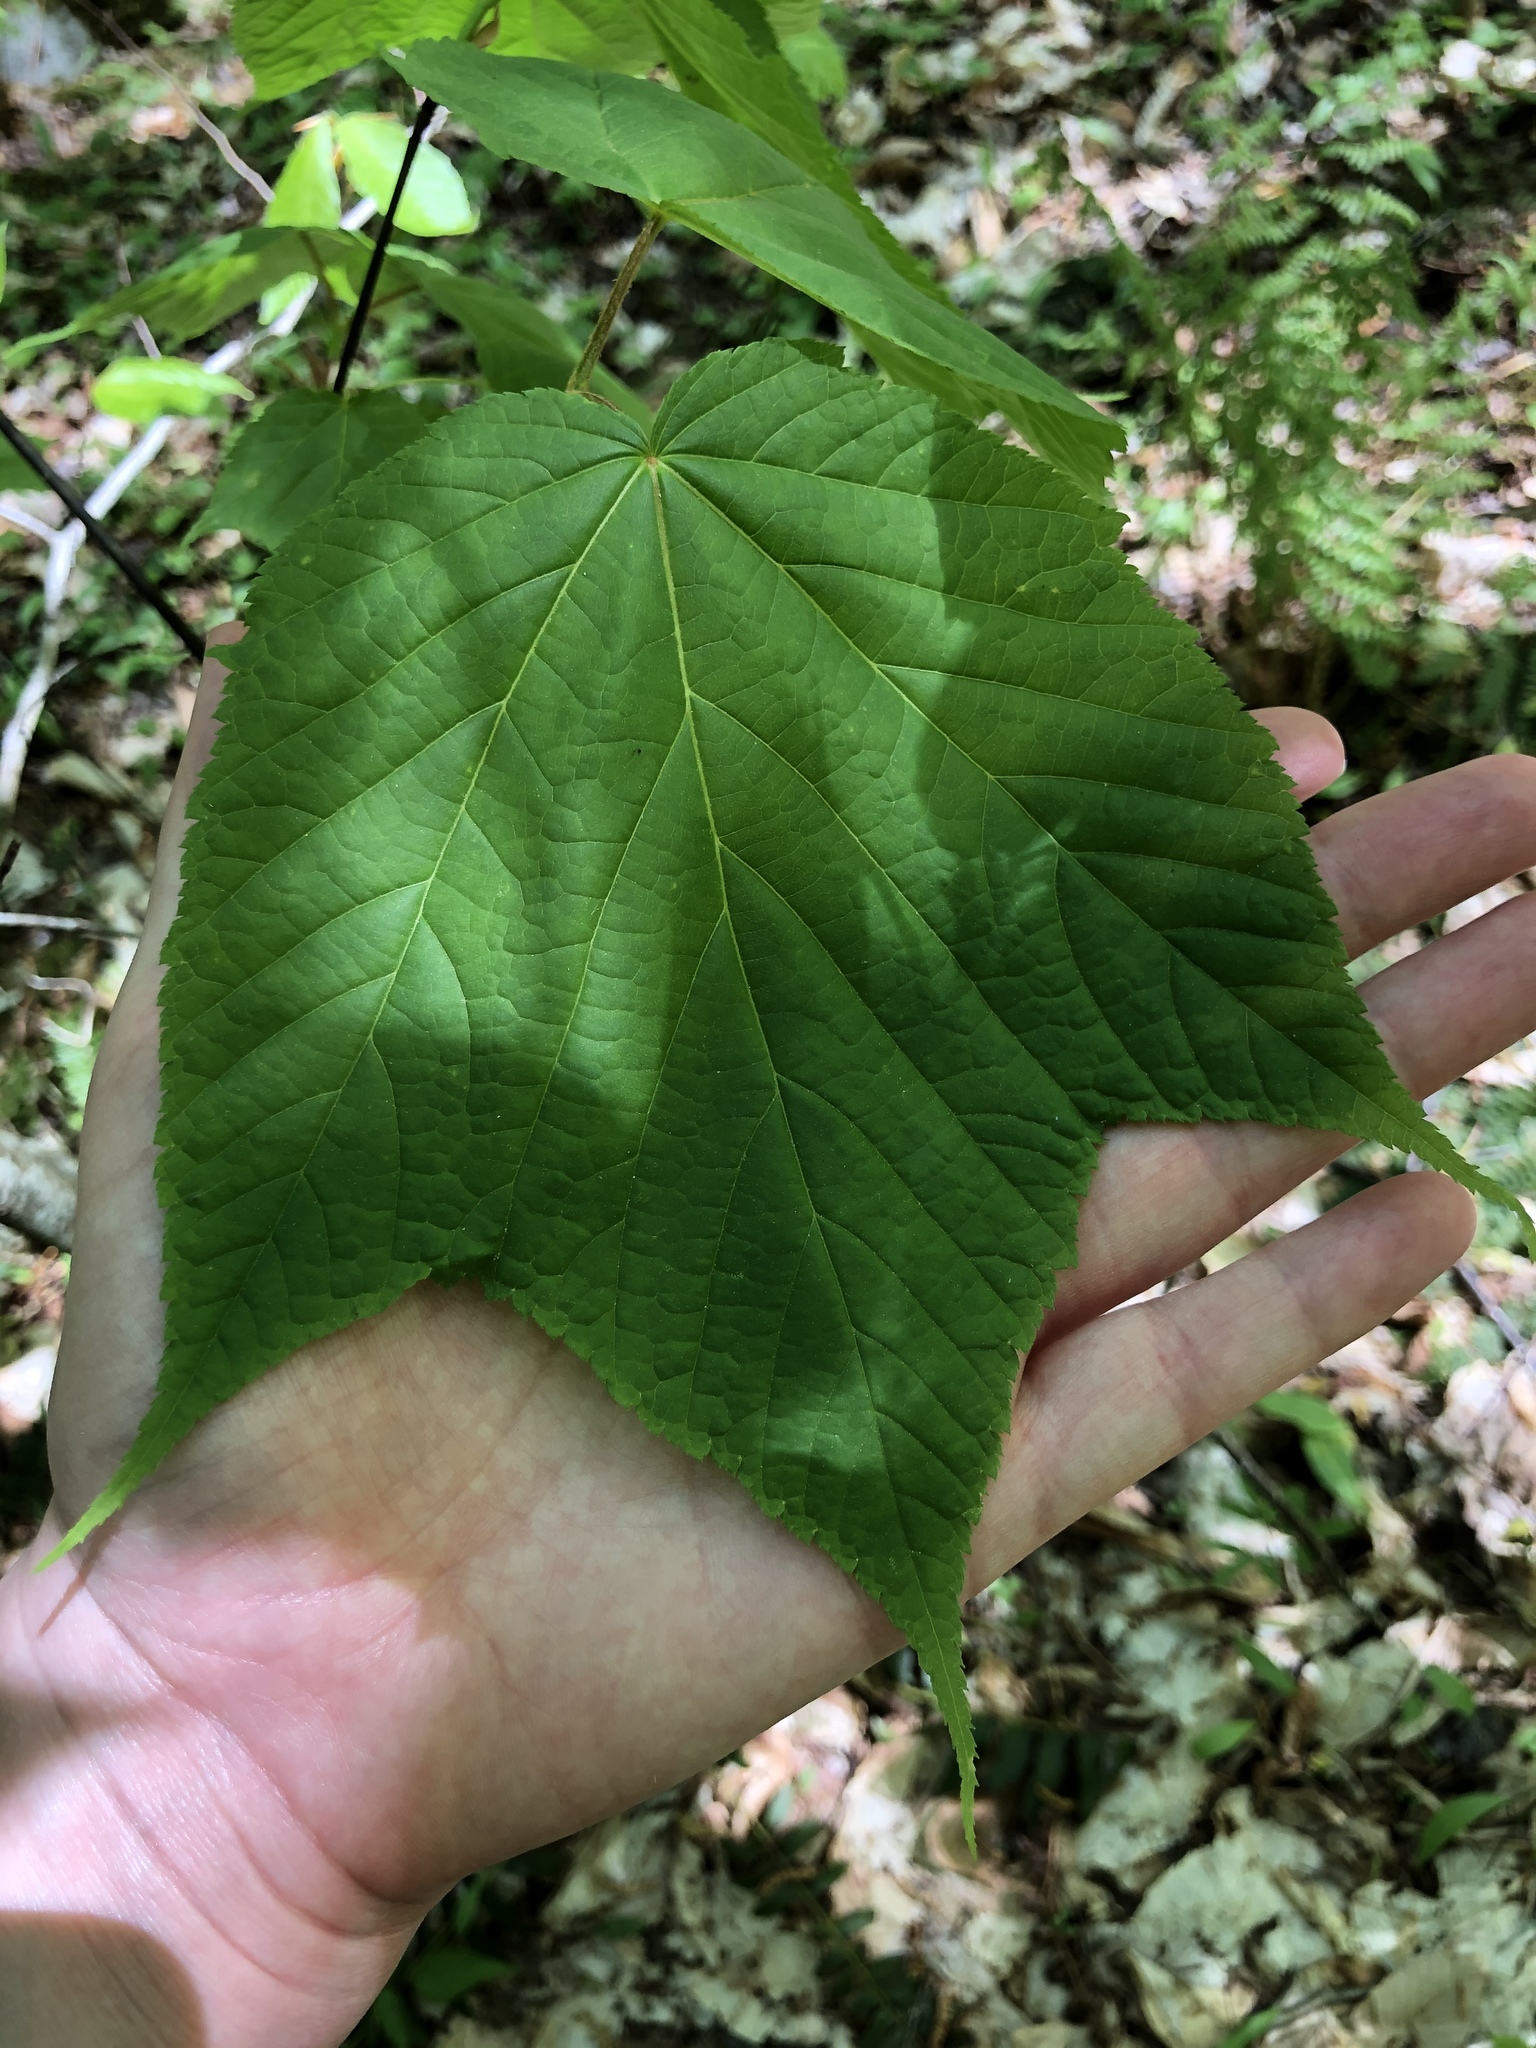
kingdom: Plantae
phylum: Tracheophyta
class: Magnoliopsida
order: Sapindales
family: Sapindaceae
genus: Acer
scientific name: Acer pensylvanicum
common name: Moosewood
